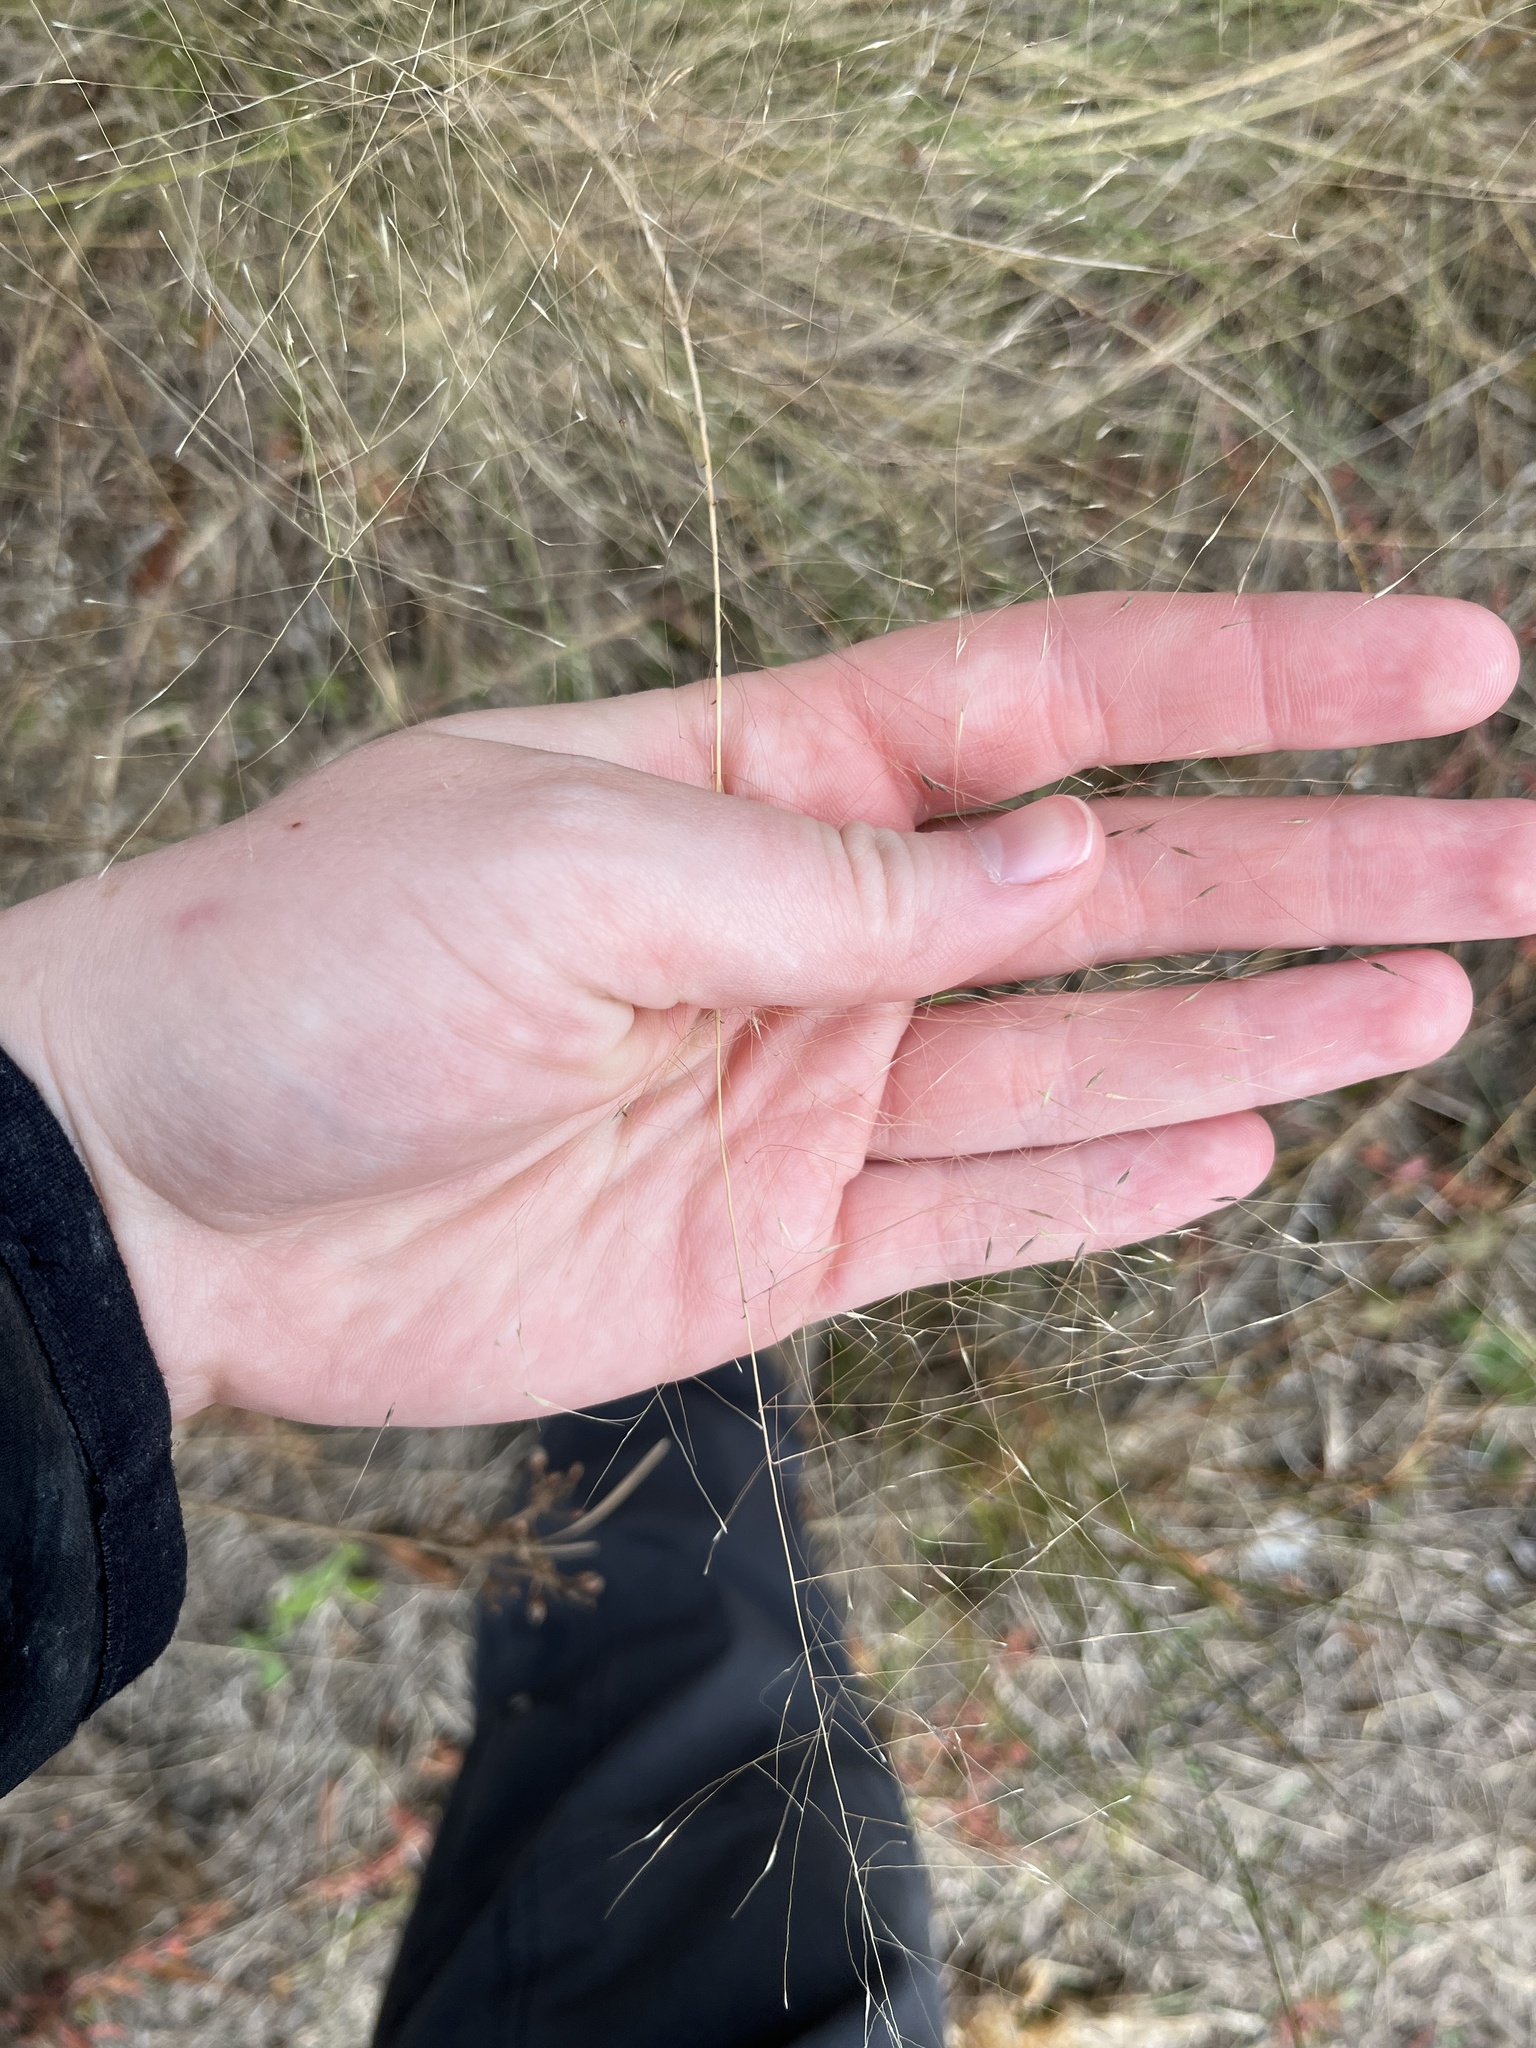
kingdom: Plantae
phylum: Tracheophyta
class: Liliopsida
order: Poales
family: Poaceae
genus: Muhlenbergia
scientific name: Muhlenbergia sericea
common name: Dune-hair grass
